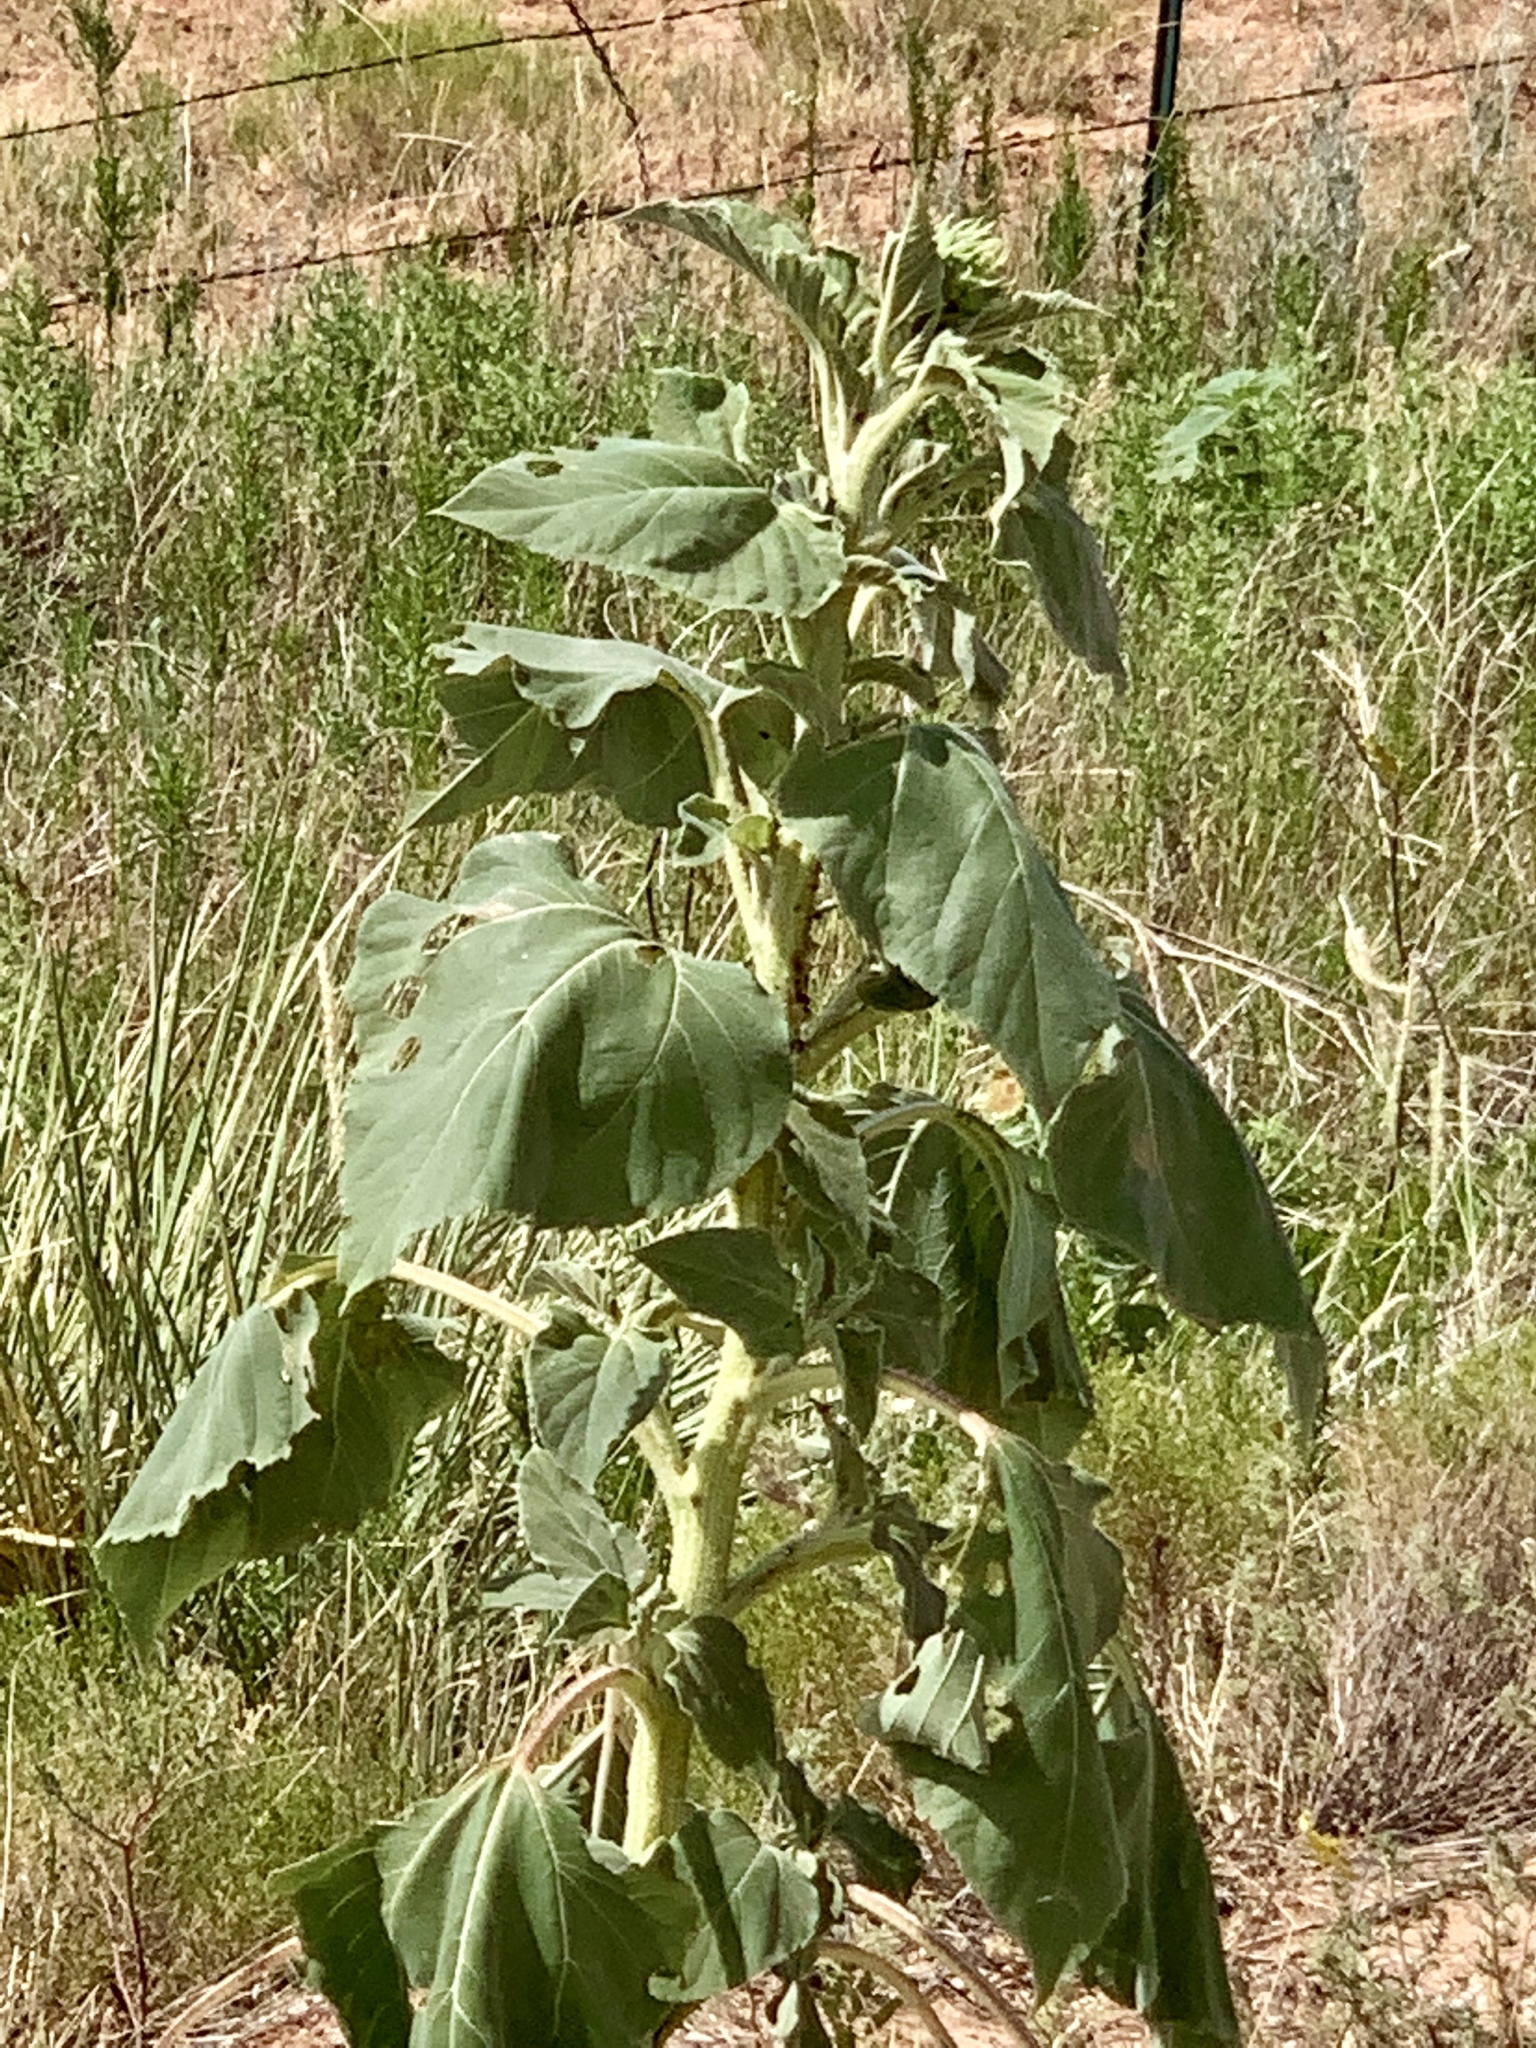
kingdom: Plantae
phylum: Tracheophyta
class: Magnoliopsida
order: Asterales
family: Asteraceae
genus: Helianthus
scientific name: Helianthus annuus
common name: Sunflower
